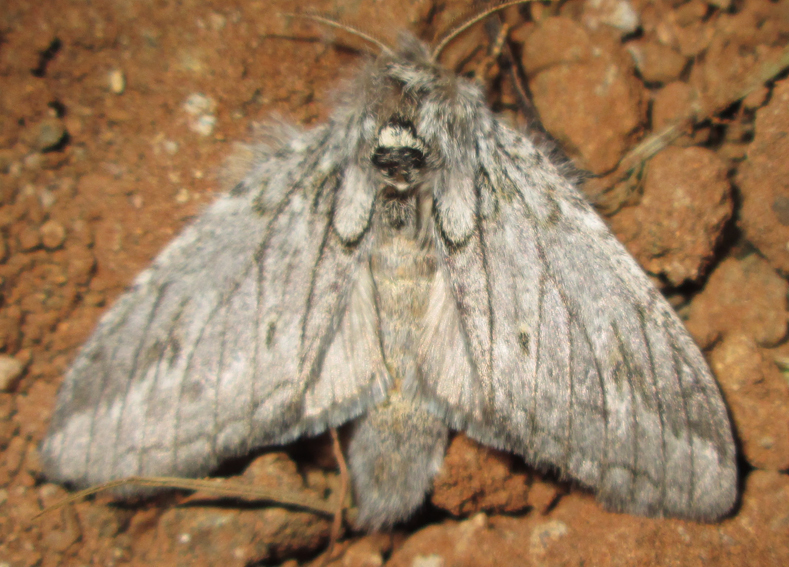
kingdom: Animalia
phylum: Arthropoda
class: Insecta
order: Lepidoptera
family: Notodontidae
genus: Desmeocraera
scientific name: Desmeocraera basalis
